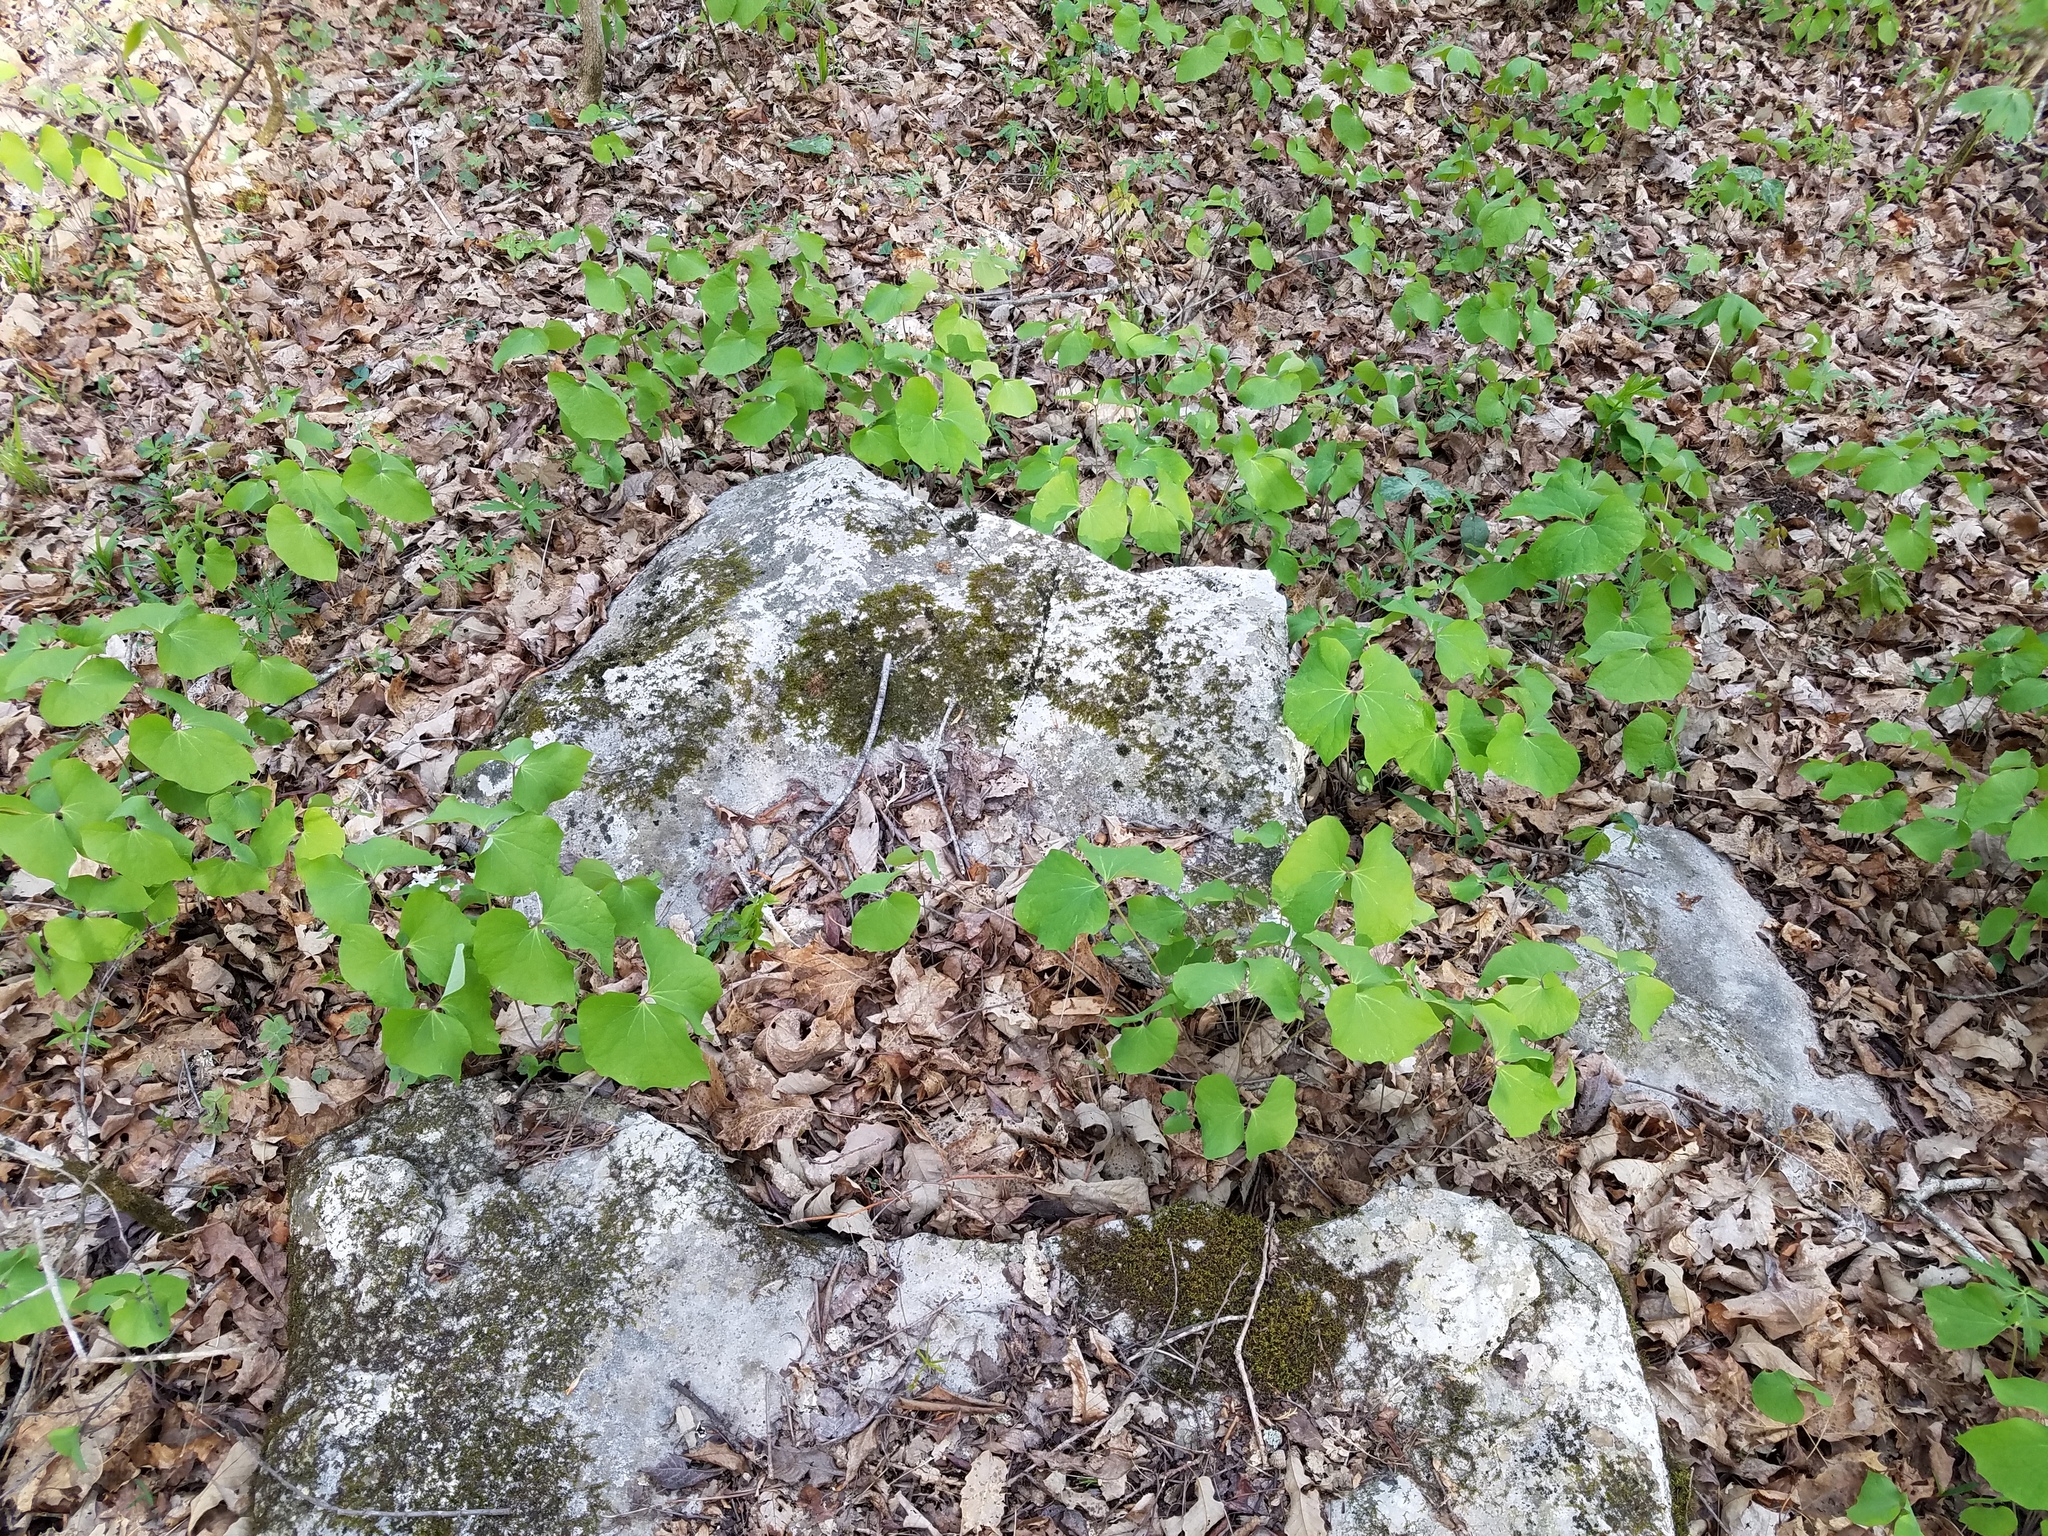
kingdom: Plantae
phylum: Tracheophyta
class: Magnoliopsida
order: Ranunculales
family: Berberidaceae
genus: Jeffersonia
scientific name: Jeffersonia diphylla
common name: Rheumatism-root
